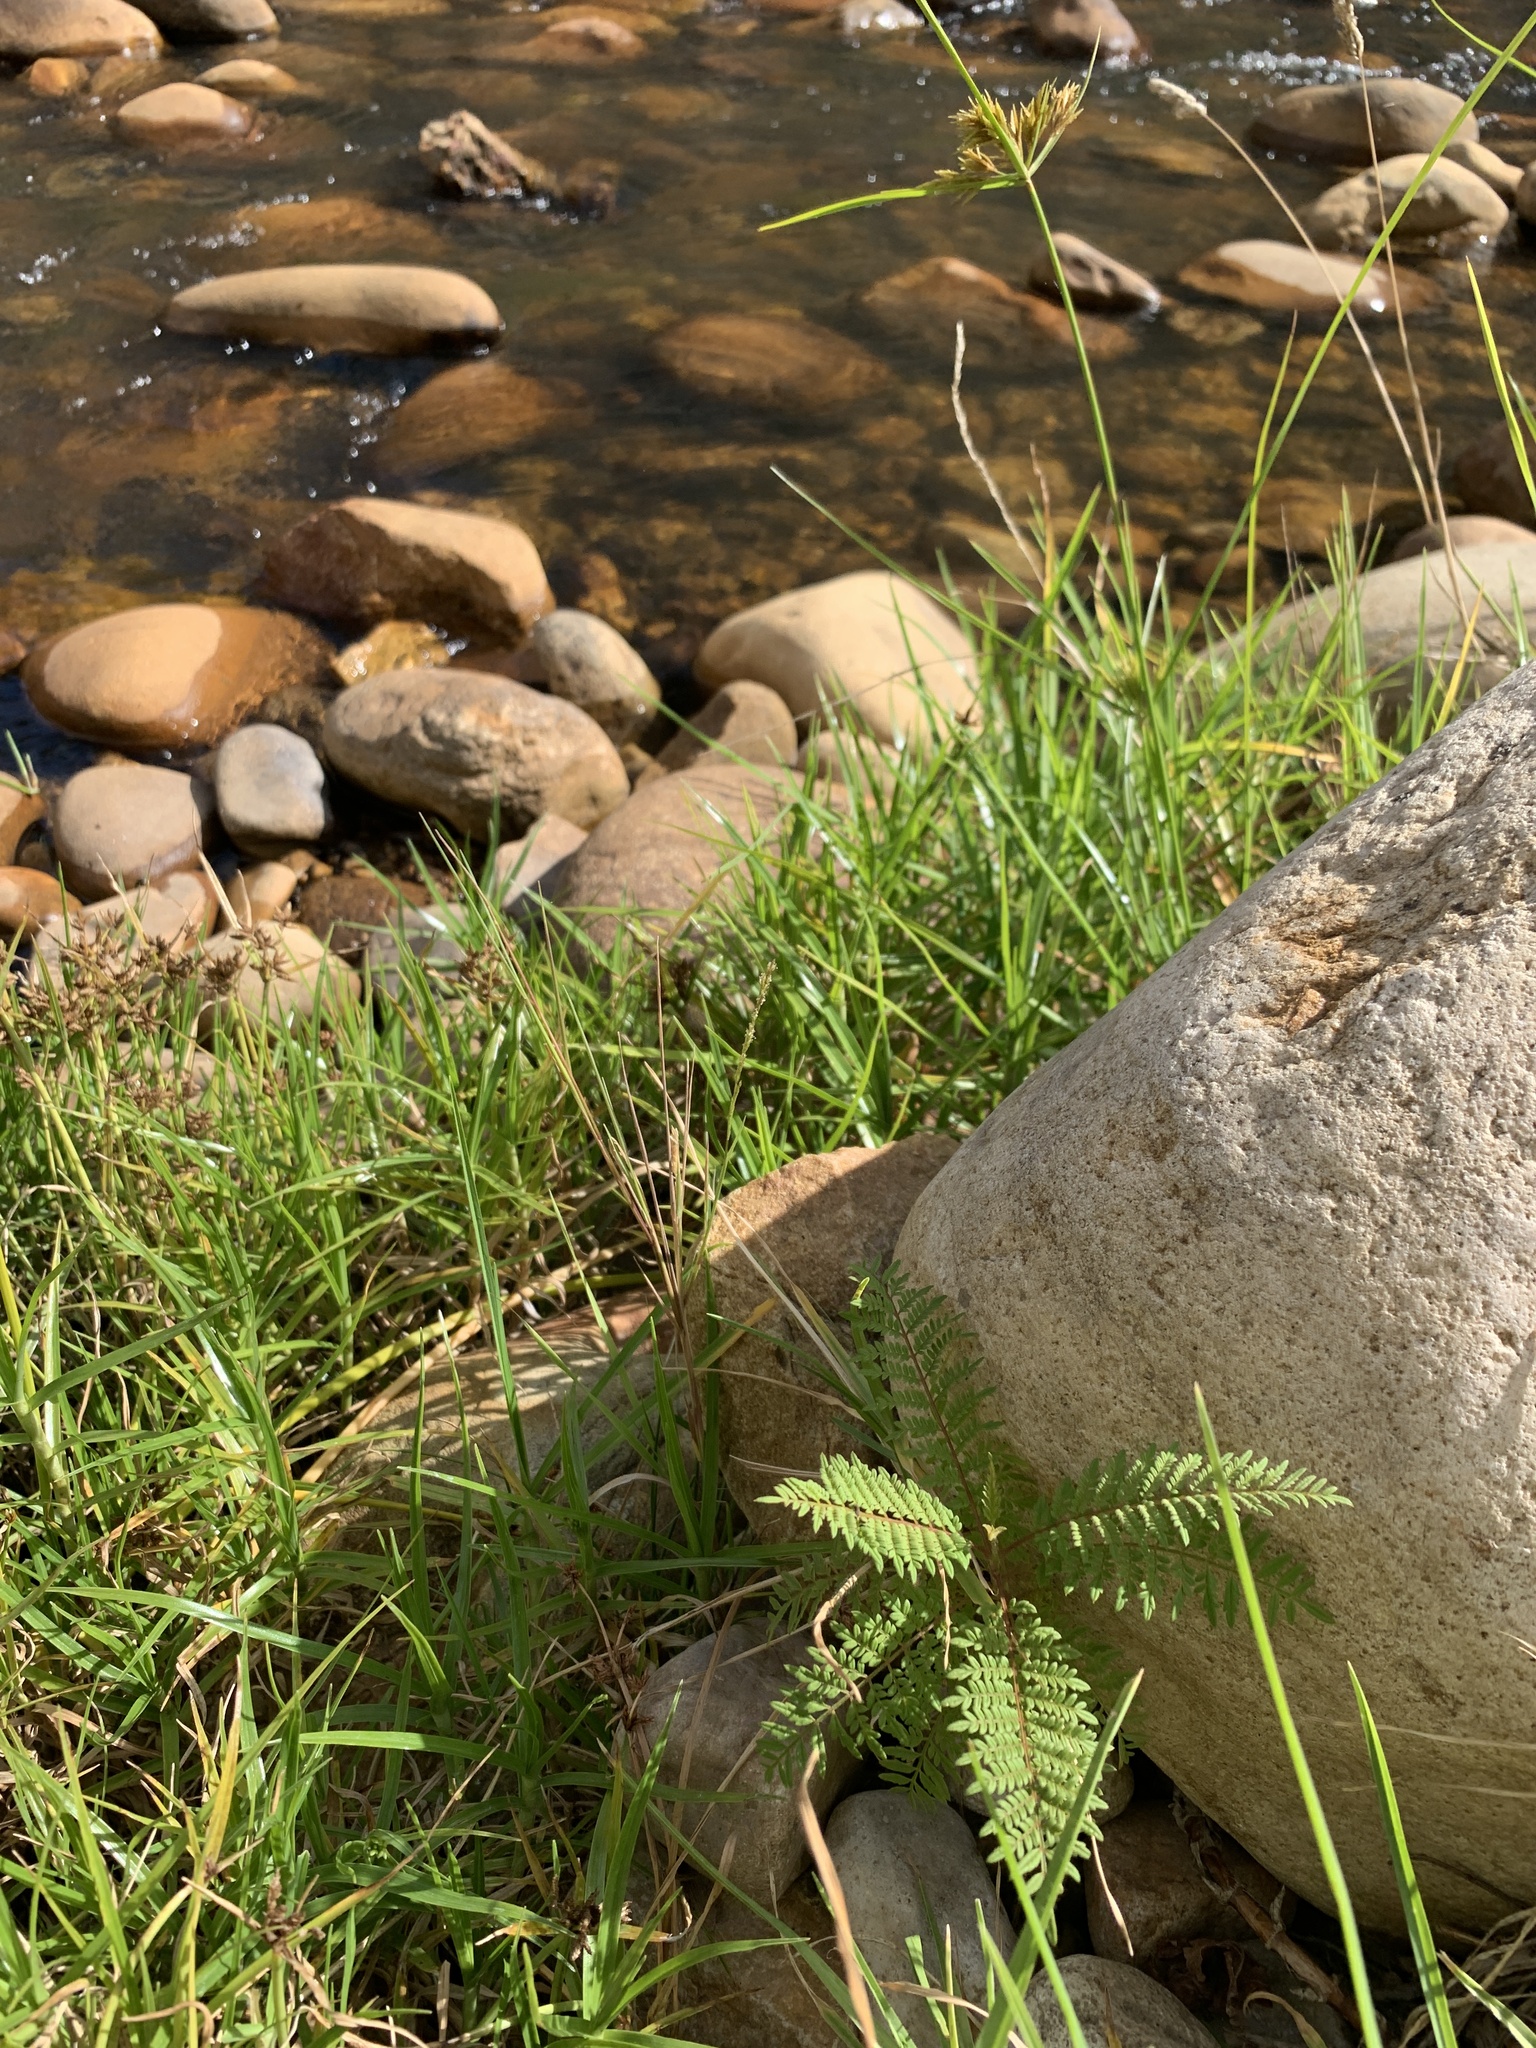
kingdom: Plantae
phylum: Tracheophyta
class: Magnoliopsida
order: Lamiales
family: Bignoniaceae
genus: Jacaranda
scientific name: Jacaranda mimosifolia
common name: Black poui
